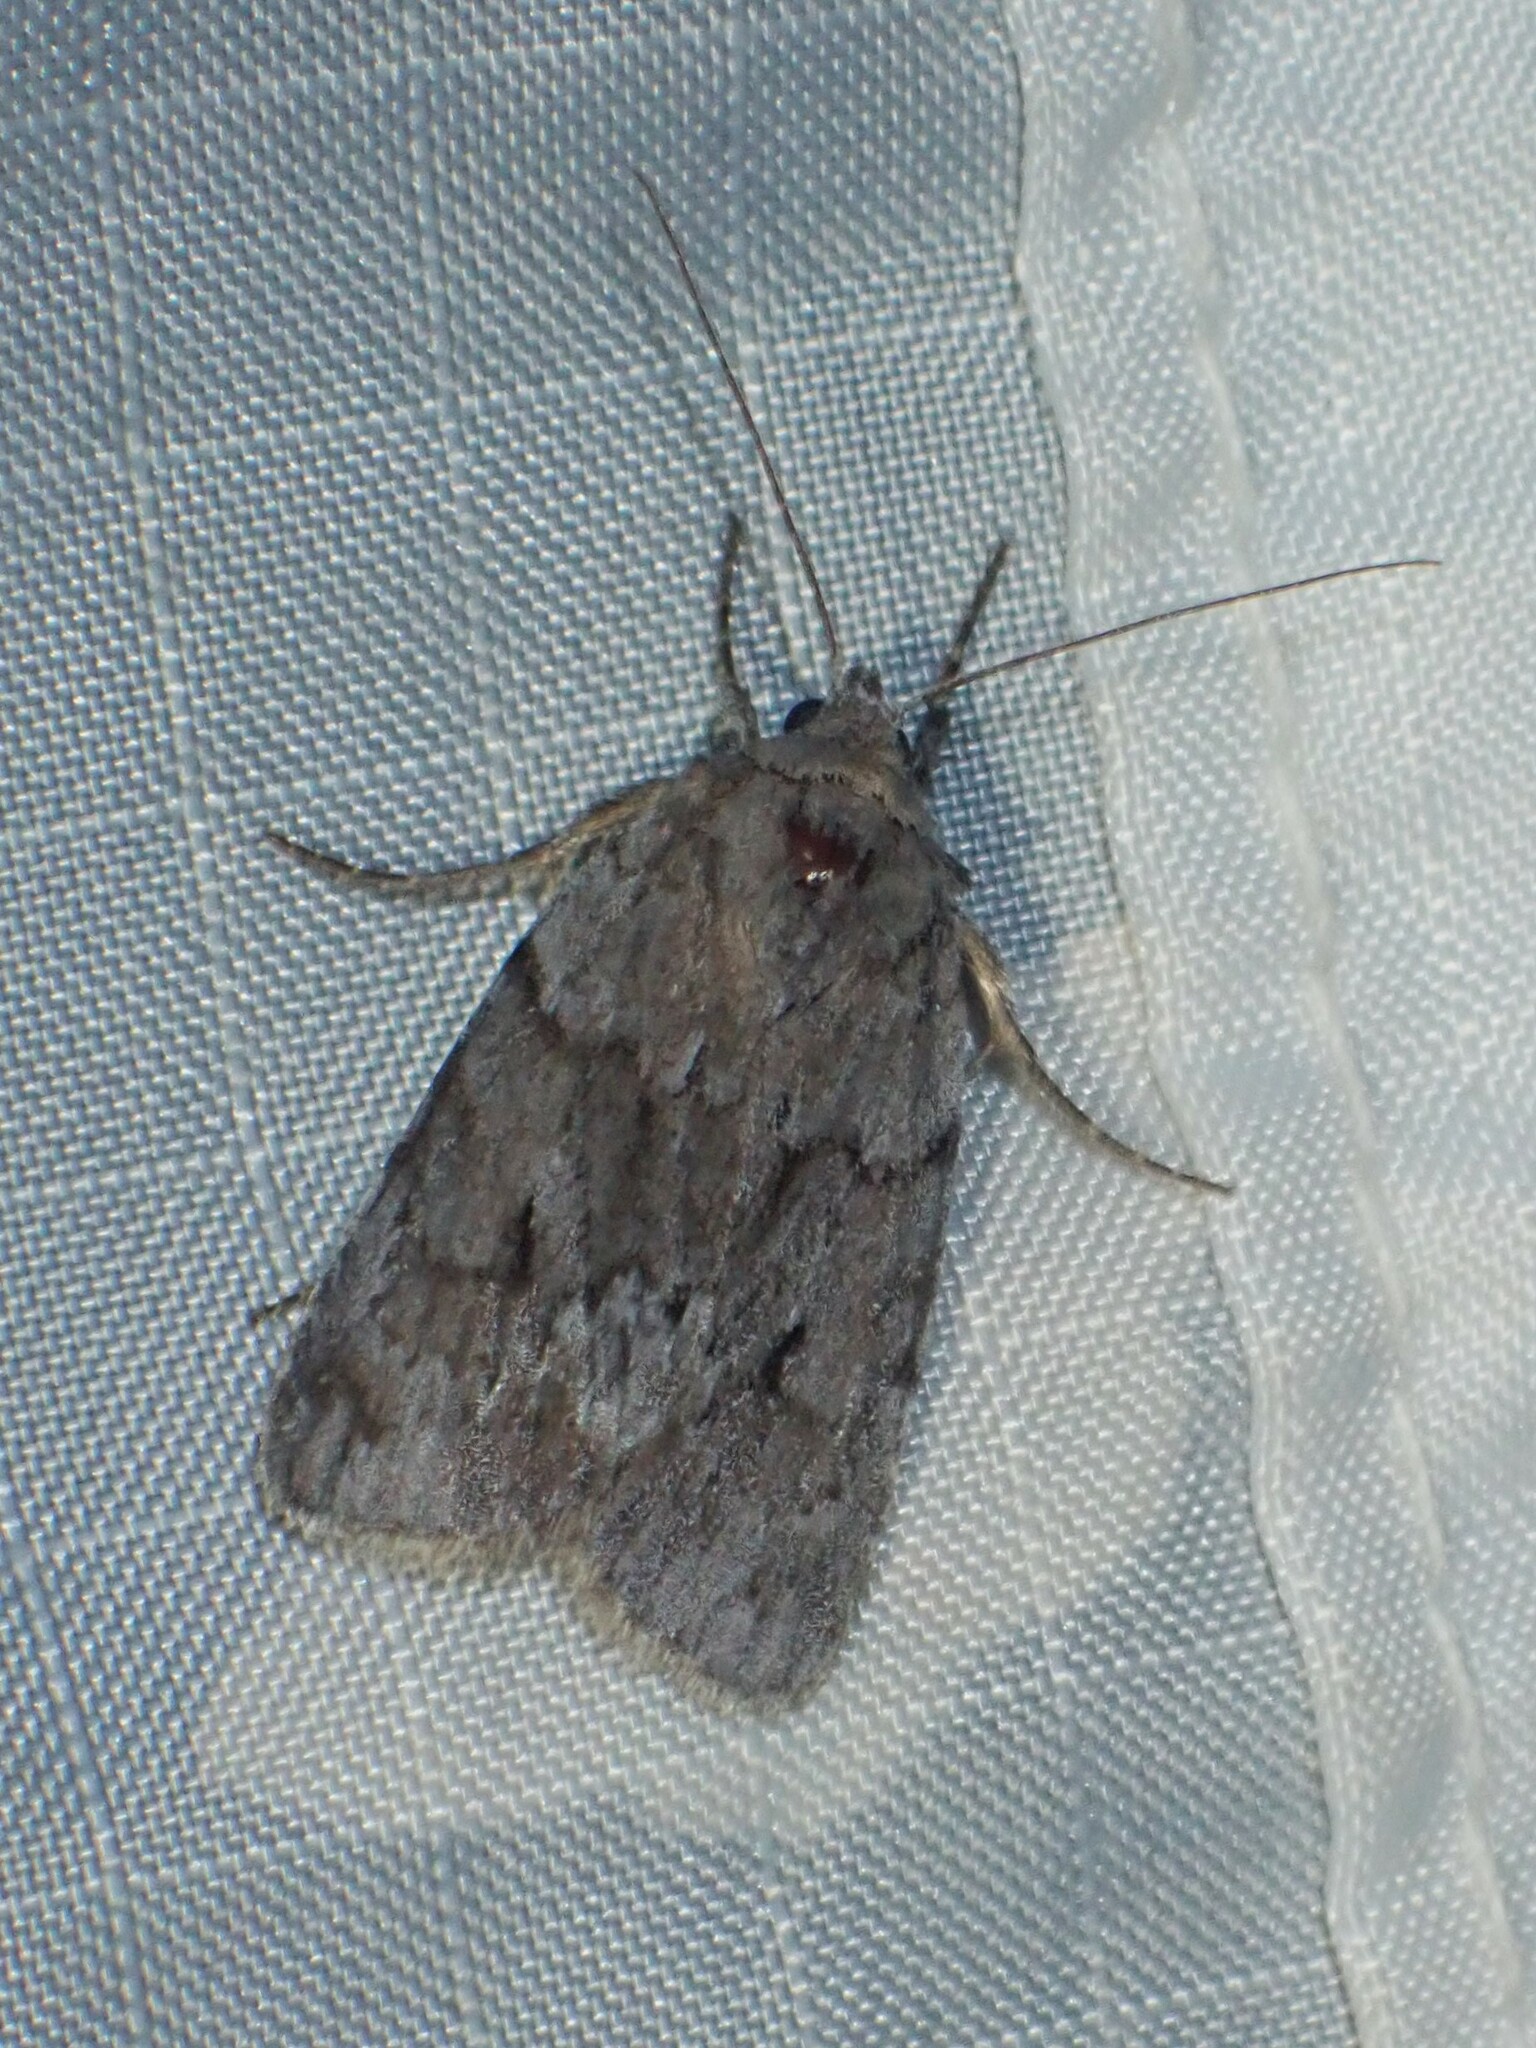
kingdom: Animalia
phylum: Arthropoda
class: Insecta
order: Lepidoptera
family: Noctuidae
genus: Sympistis
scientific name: Sympistis dentata
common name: Blueberry sallow
